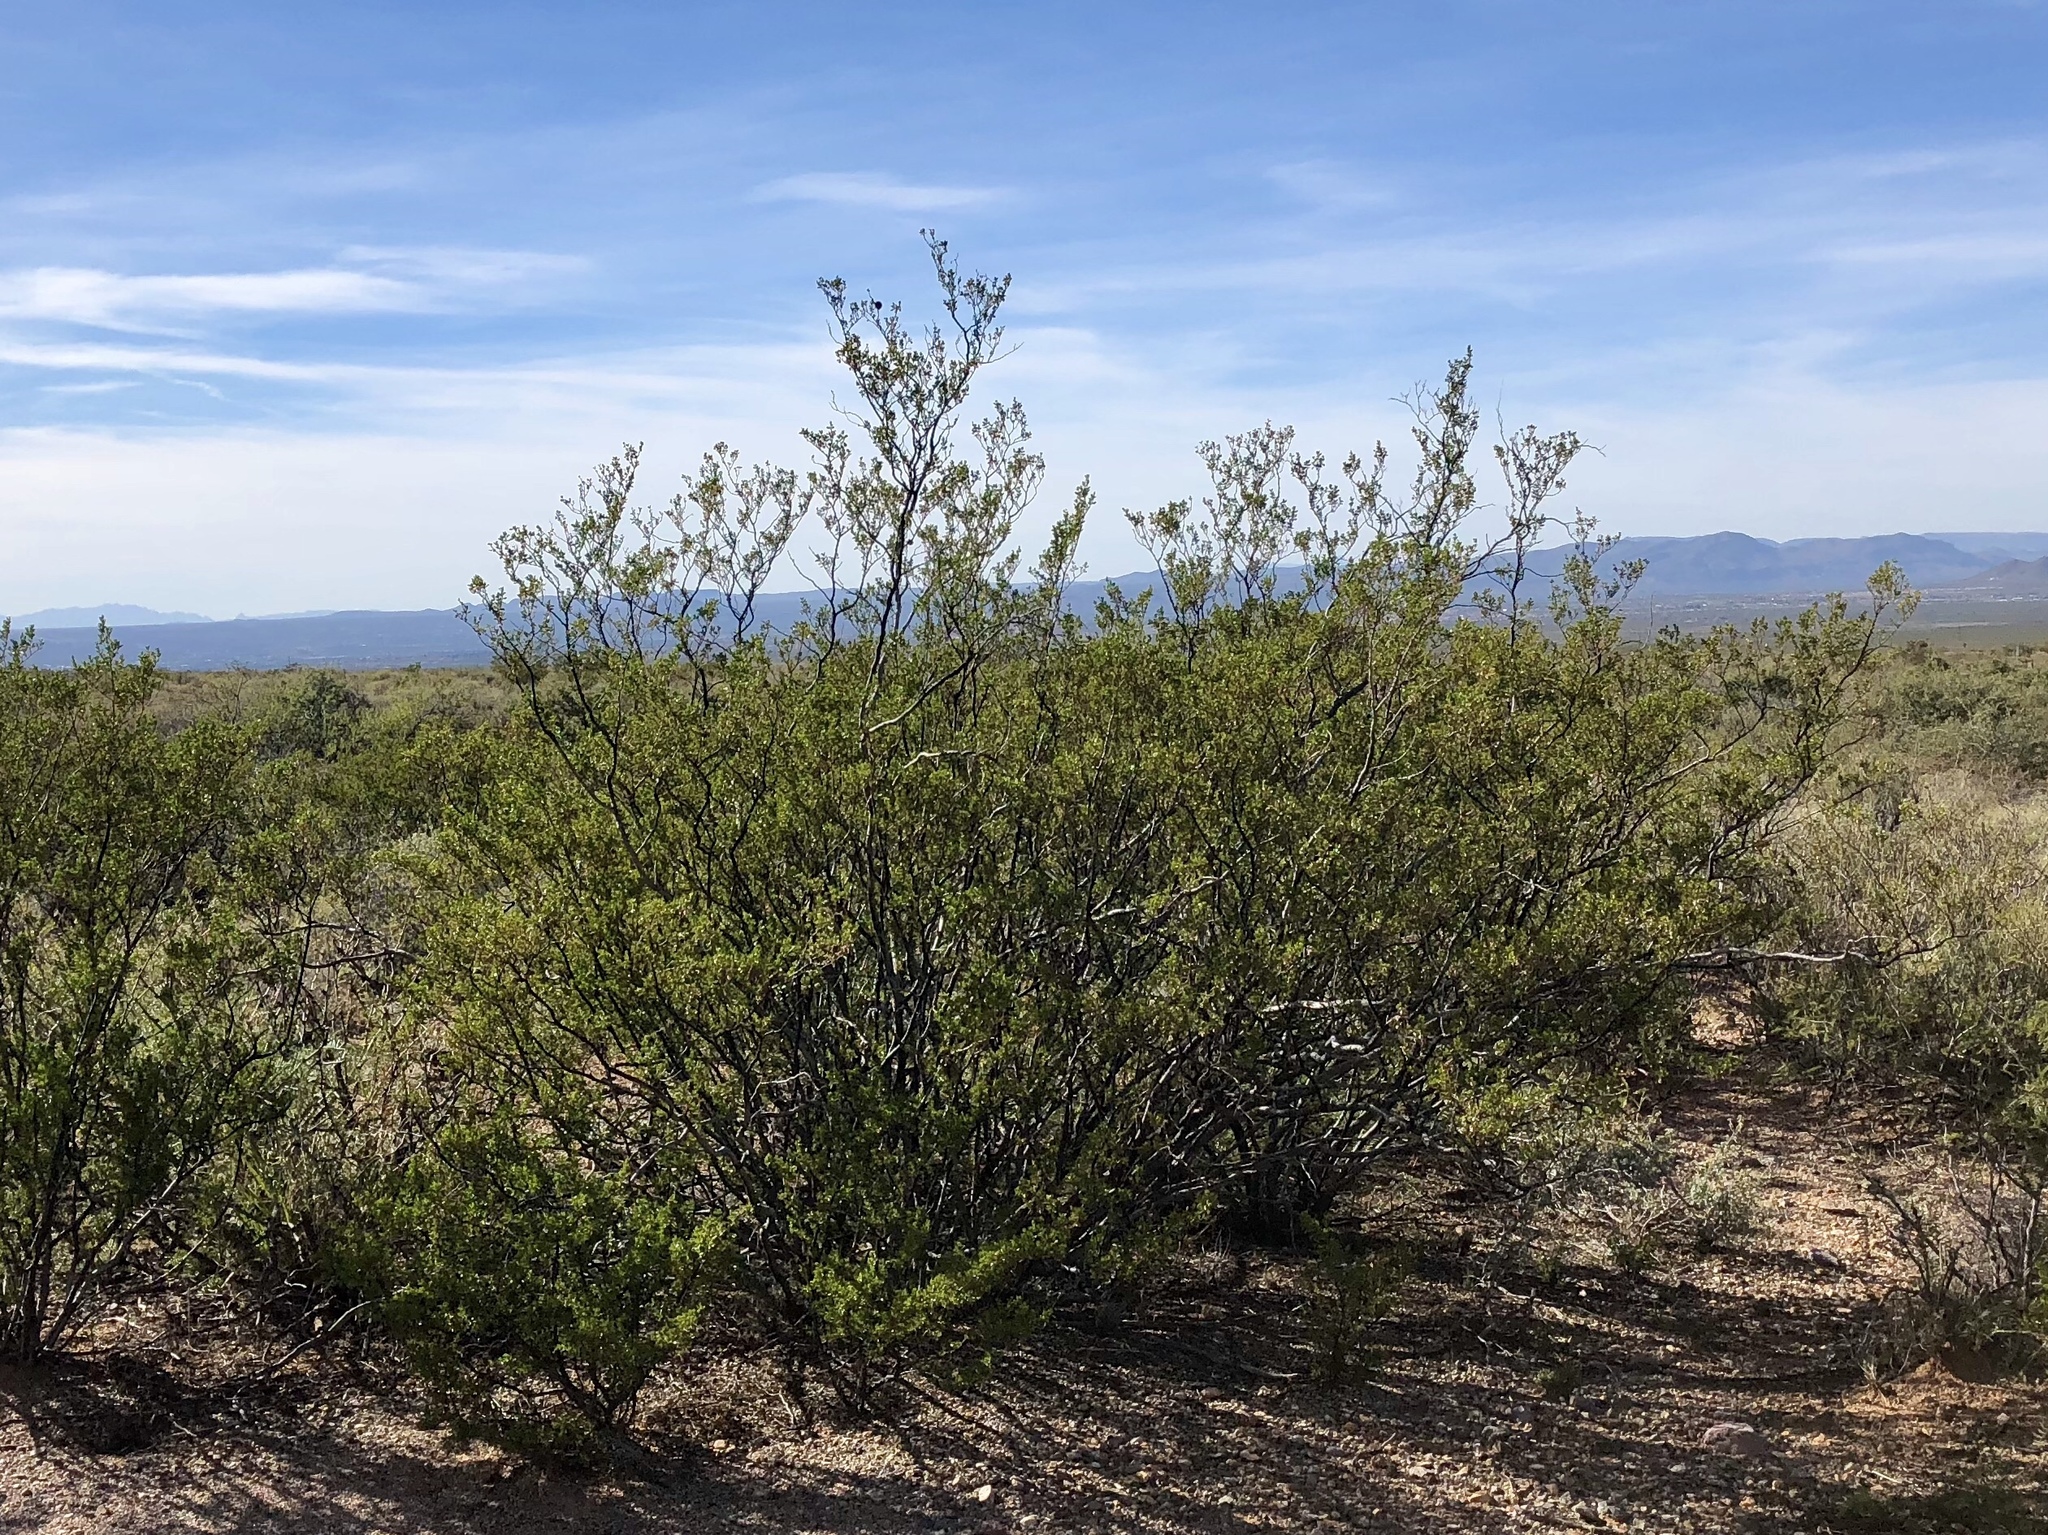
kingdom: Plantae
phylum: Tracheophyta
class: Magnoliopsida
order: Zygophyllales
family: Zygophyllaceae
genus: Larrea
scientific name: Larrea tridentata
